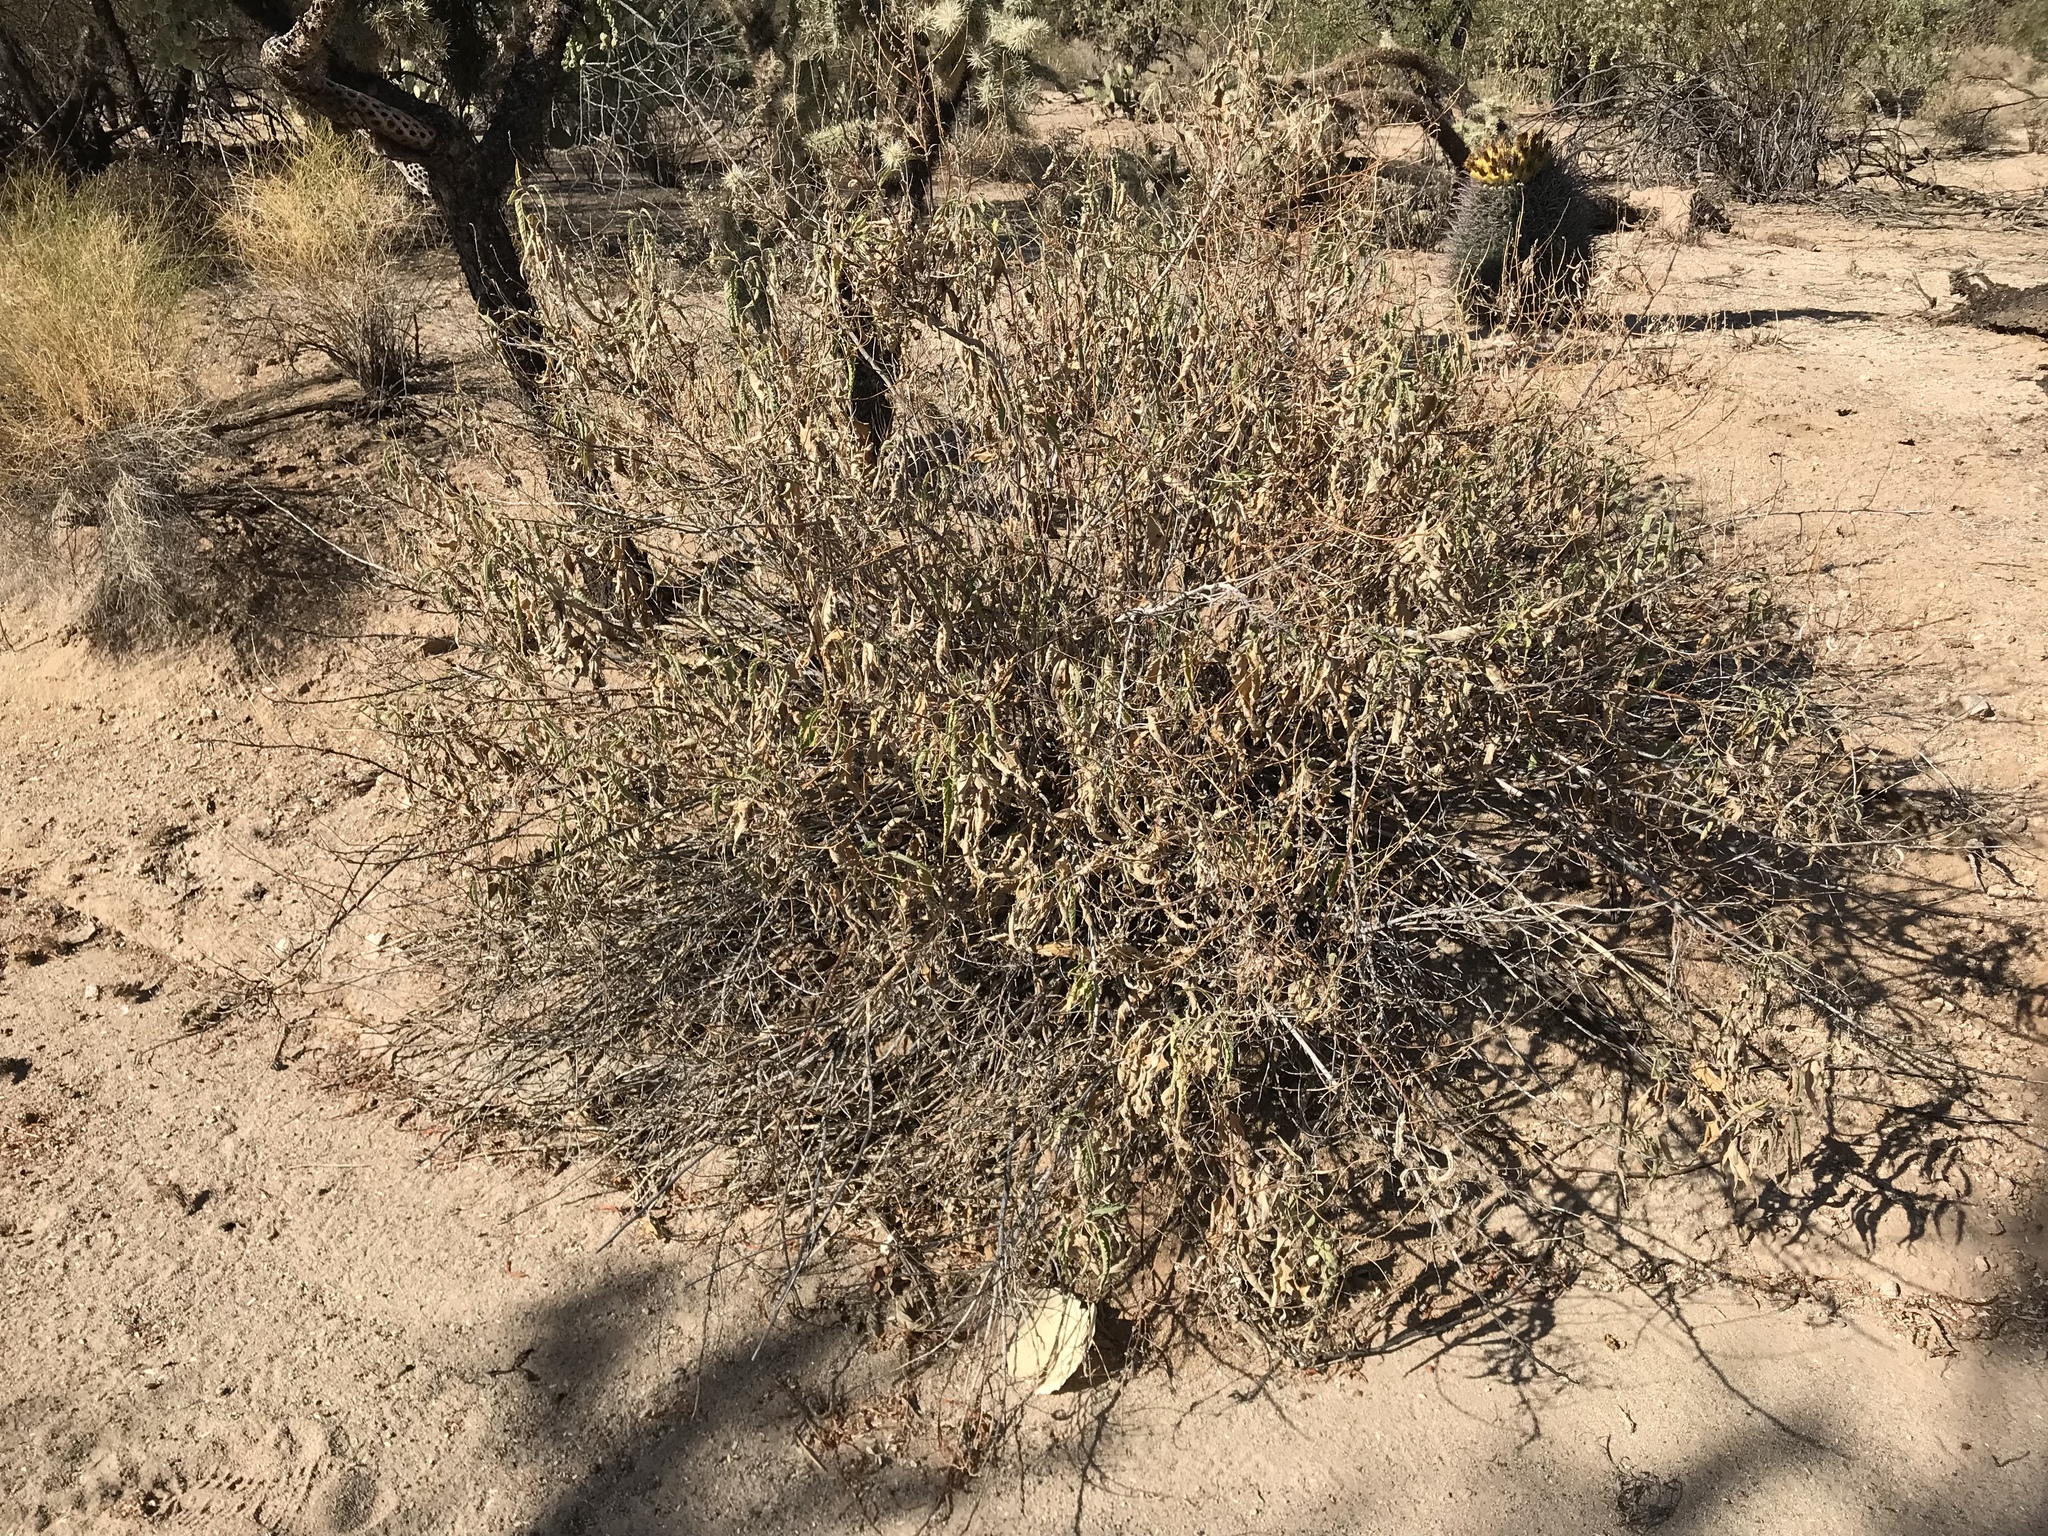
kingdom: Plantae
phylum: Tracheophyta
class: Magnoliopsida
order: Asterales
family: Asteraceae
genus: Ambrosia
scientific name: Ambrosia deltoidea
